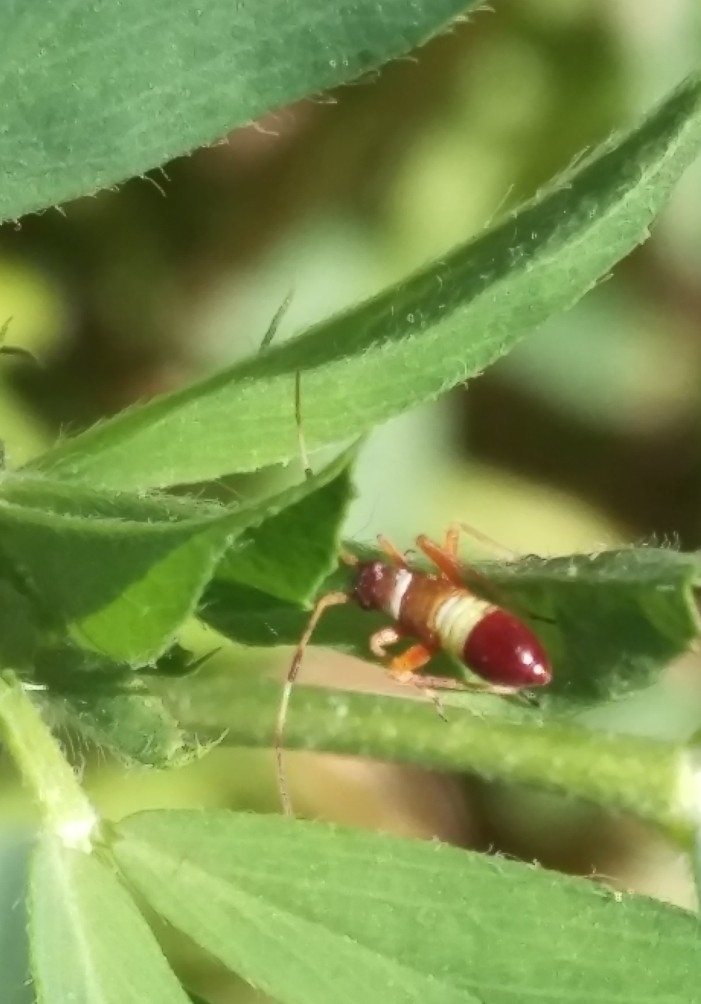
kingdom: Animalia
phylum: Arthropoda
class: Insecta
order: Hemiptera
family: Miridae
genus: Closterotomus
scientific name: Closterotomus biclavatus
